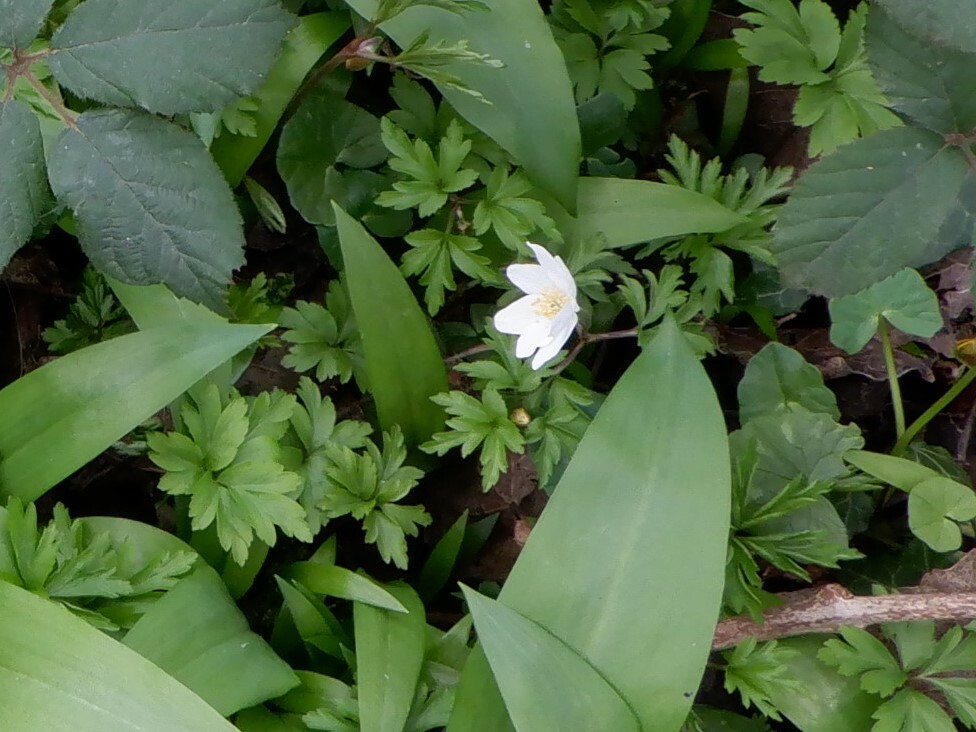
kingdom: Plantae
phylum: Tracheophyta
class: Magnoliopsida
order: Ranunculales
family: Ranunculaceae
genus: Anemone
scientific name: Anemone nemorosa
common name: Wood anemone
